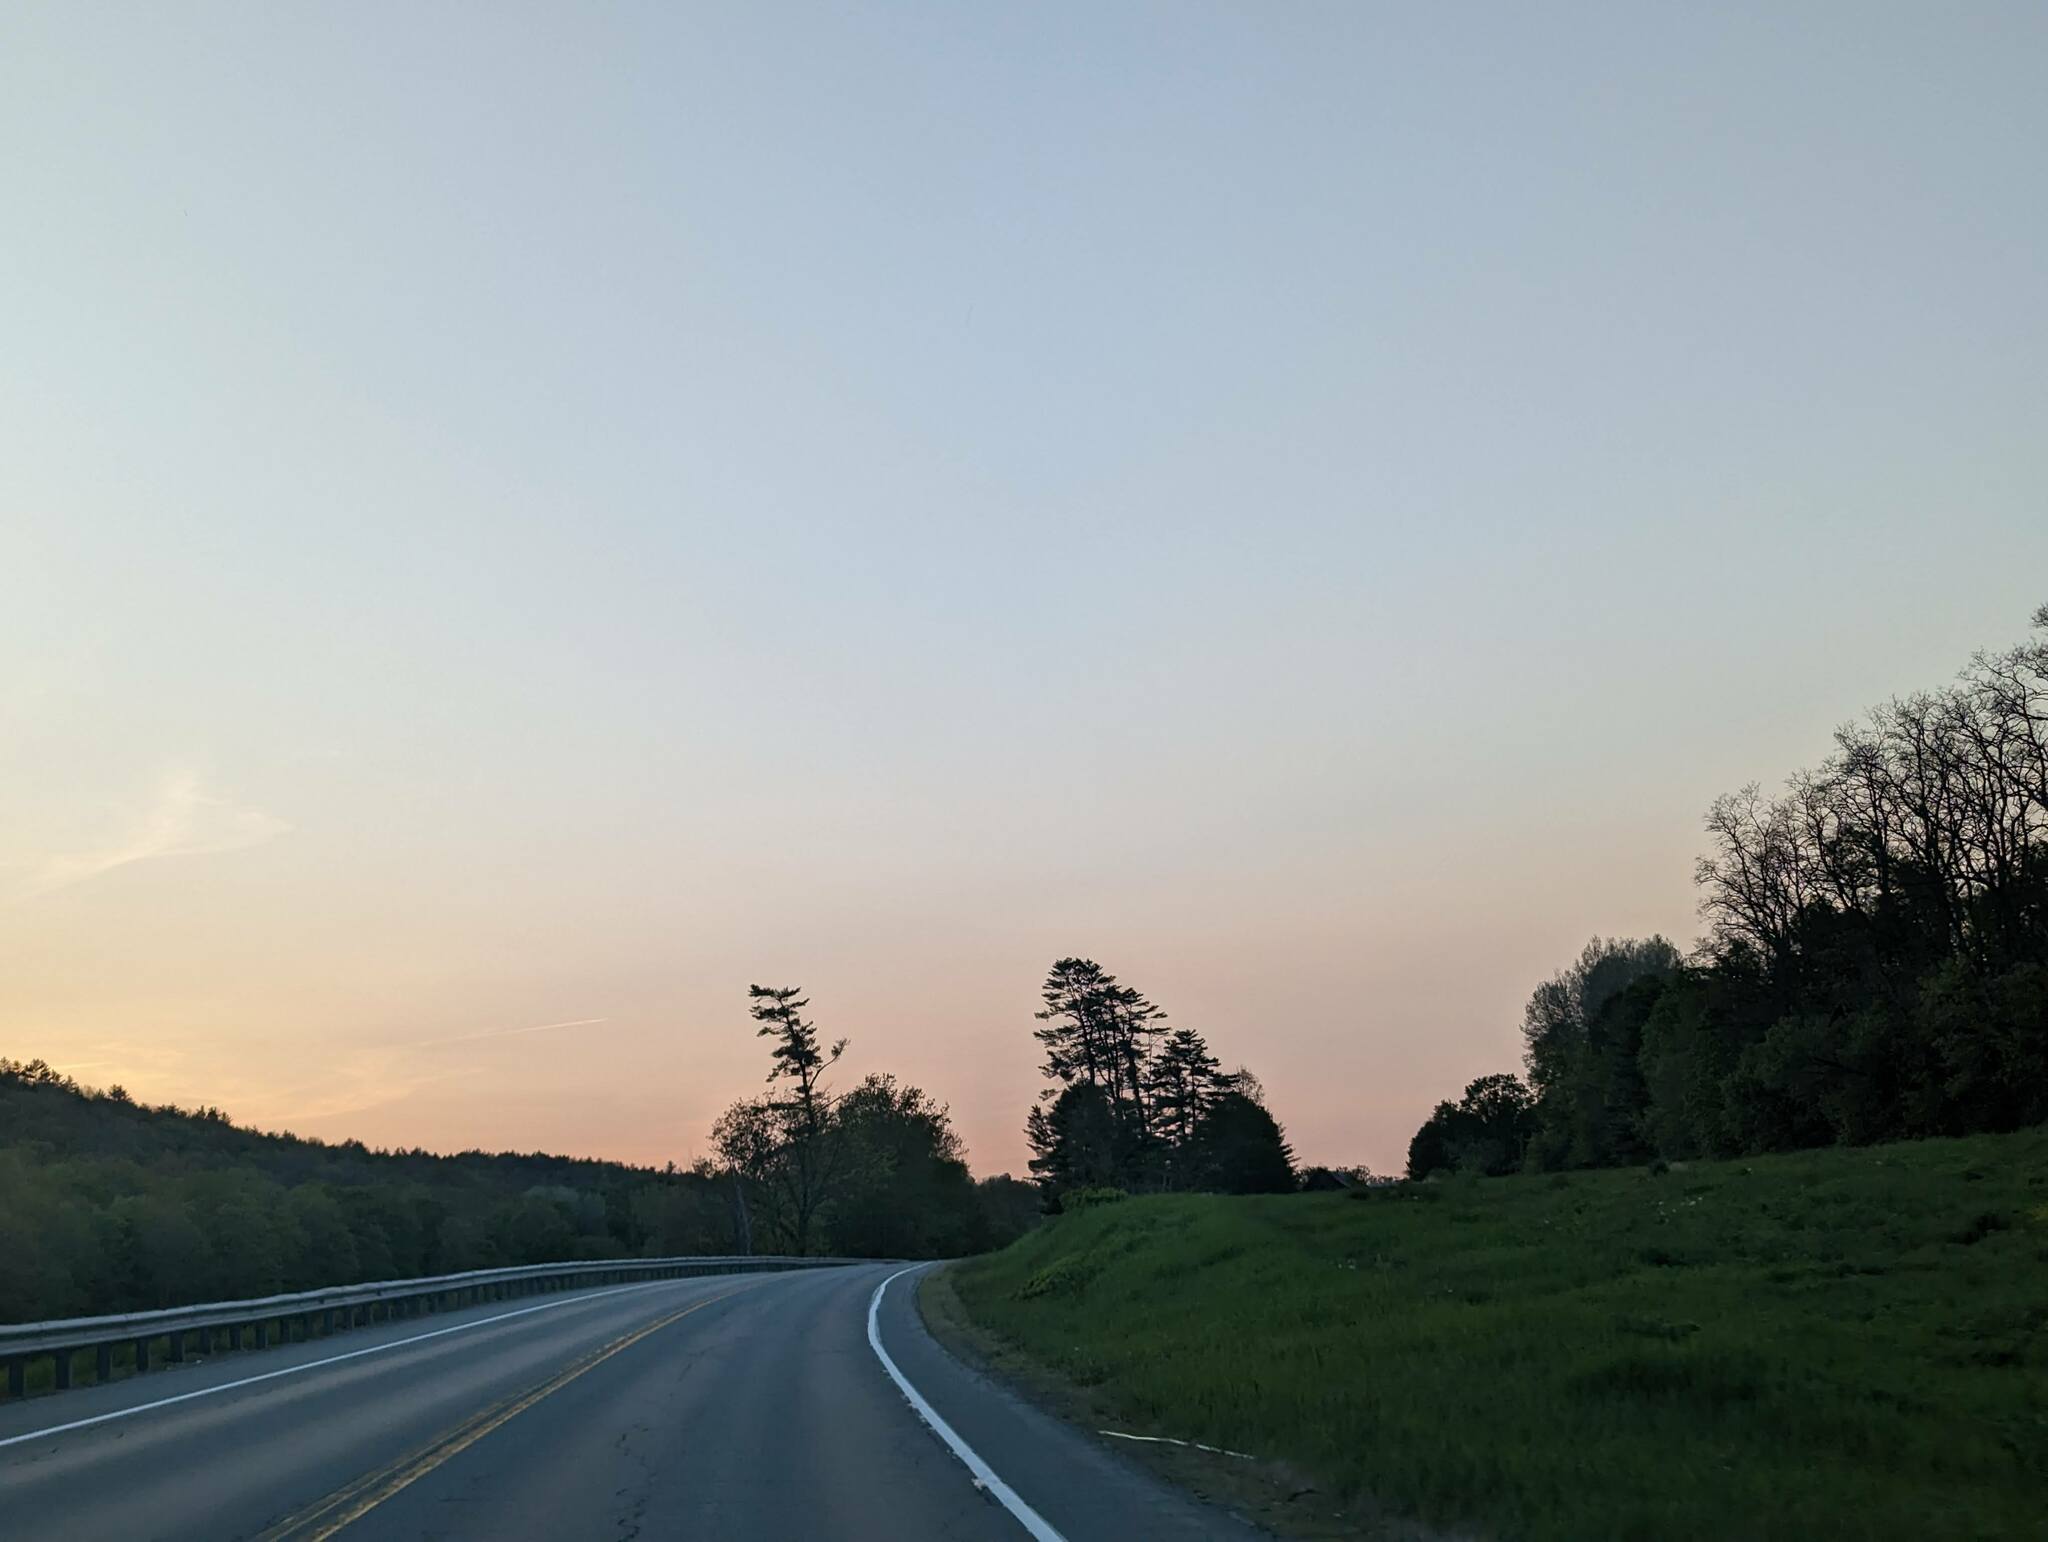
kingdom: Plantae
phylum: Tracheophyta
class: Pinopsida
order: Pinales
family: Pinaceae
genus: Pinus
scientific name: Pinus strobus
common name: Weymouth pine
